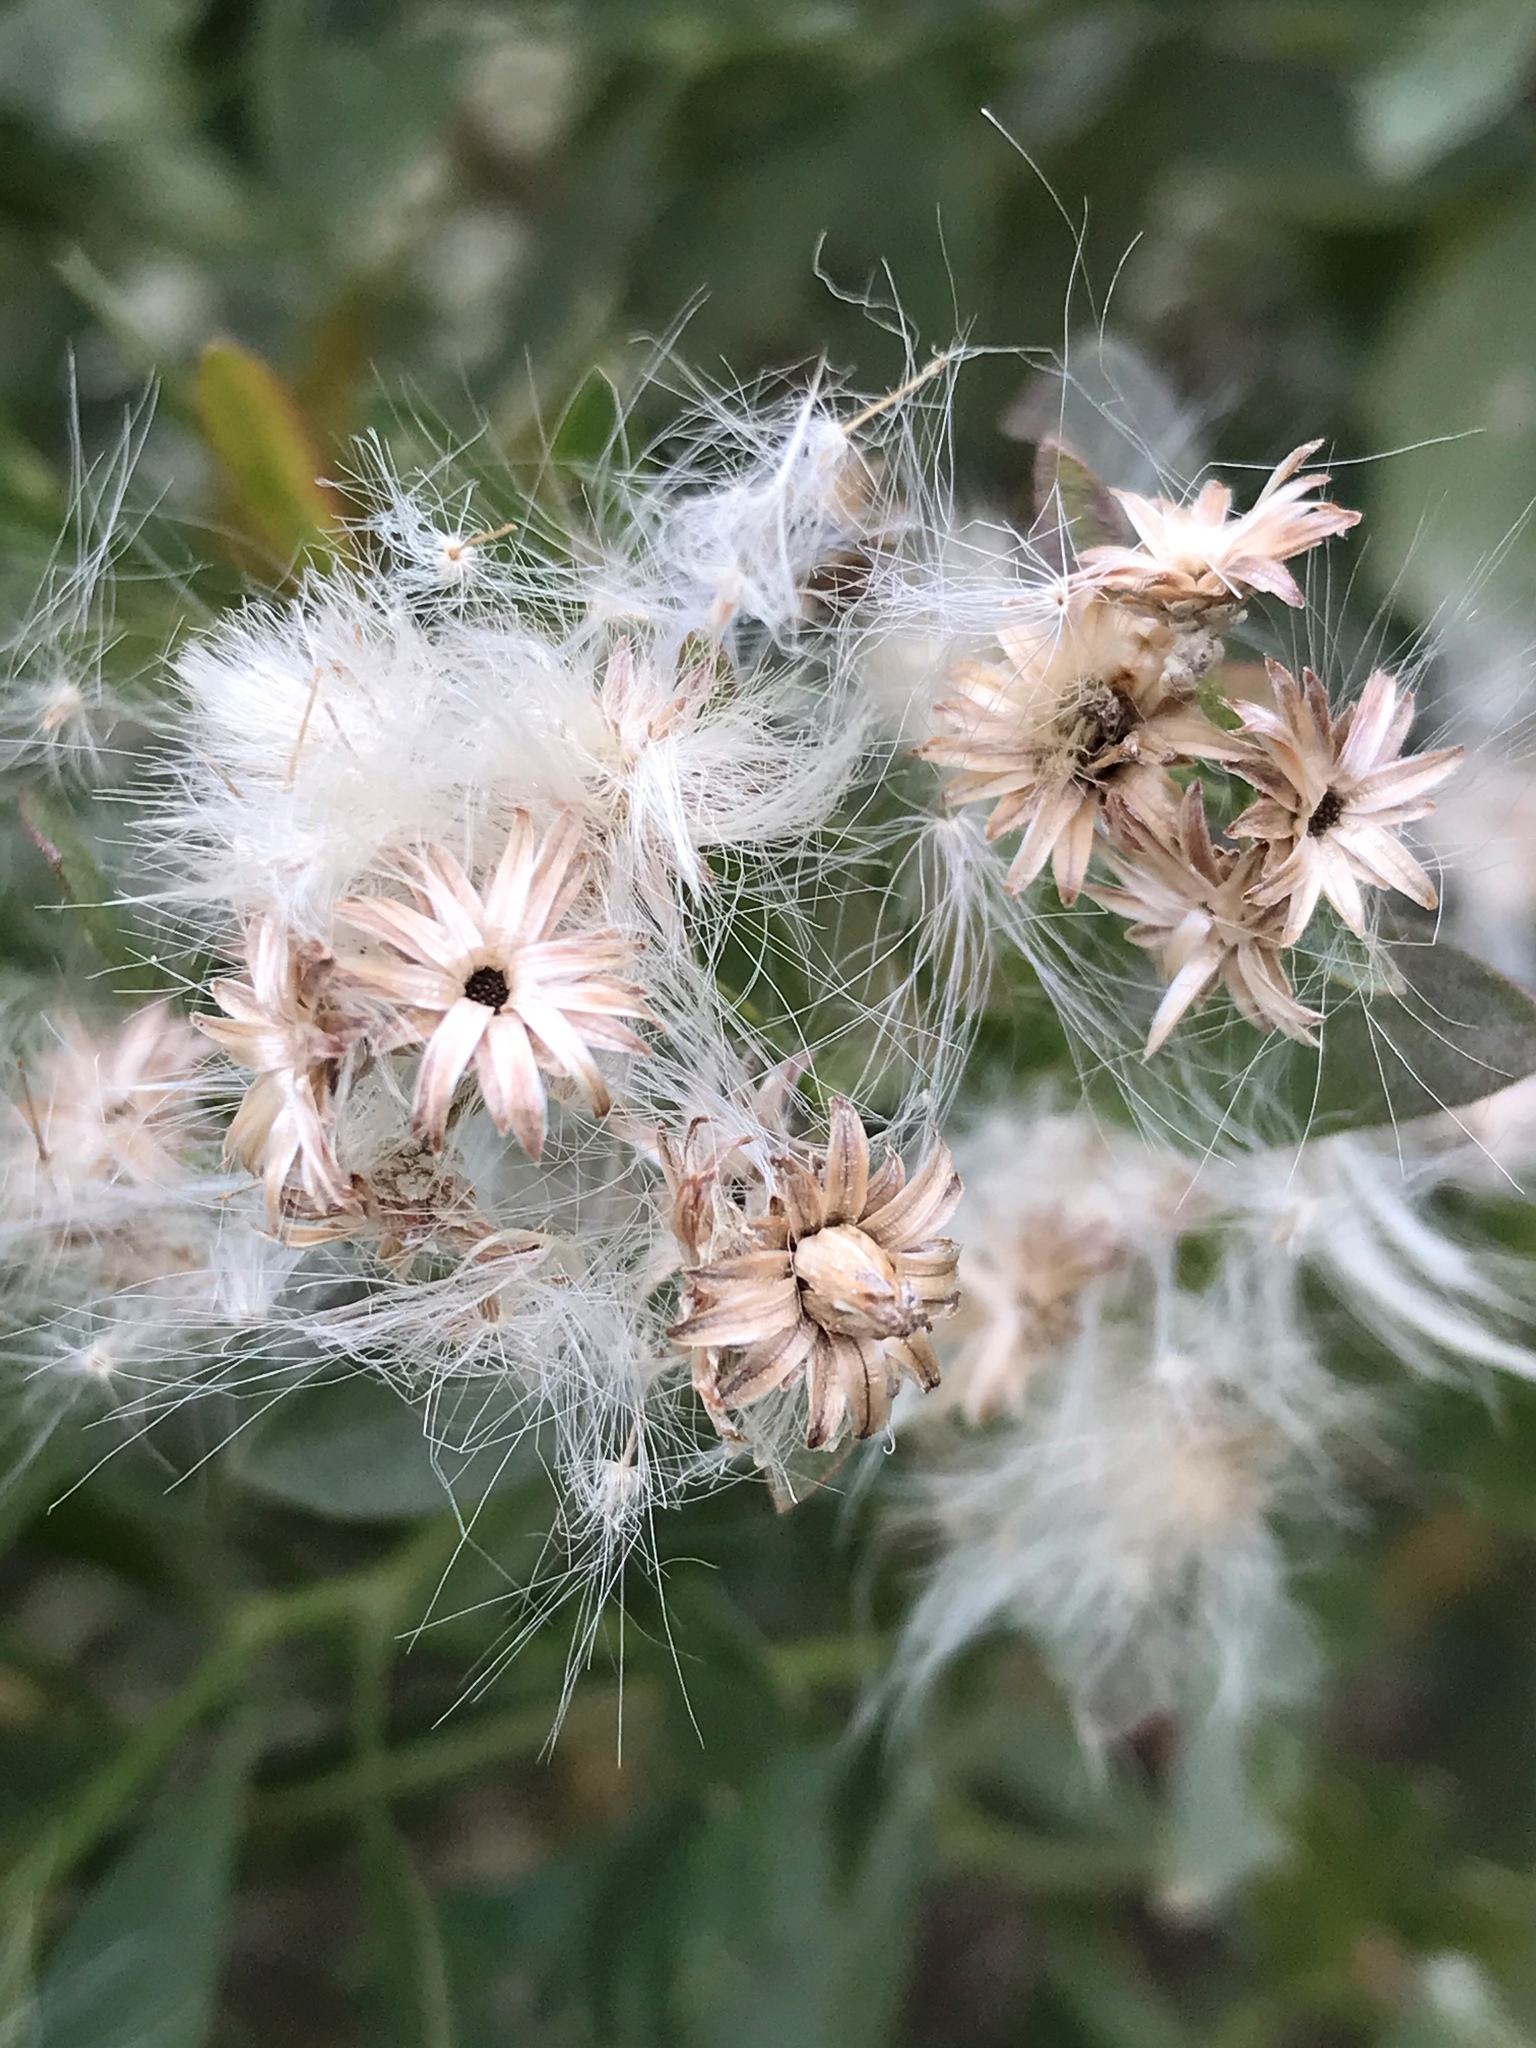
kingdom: Plantae
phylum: Tracheophyta
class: Magnoliopsida
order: Asterales
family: Asteraceae
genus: Baccharis
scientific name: Baccharis halimifolia
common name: Eastern baccharis
